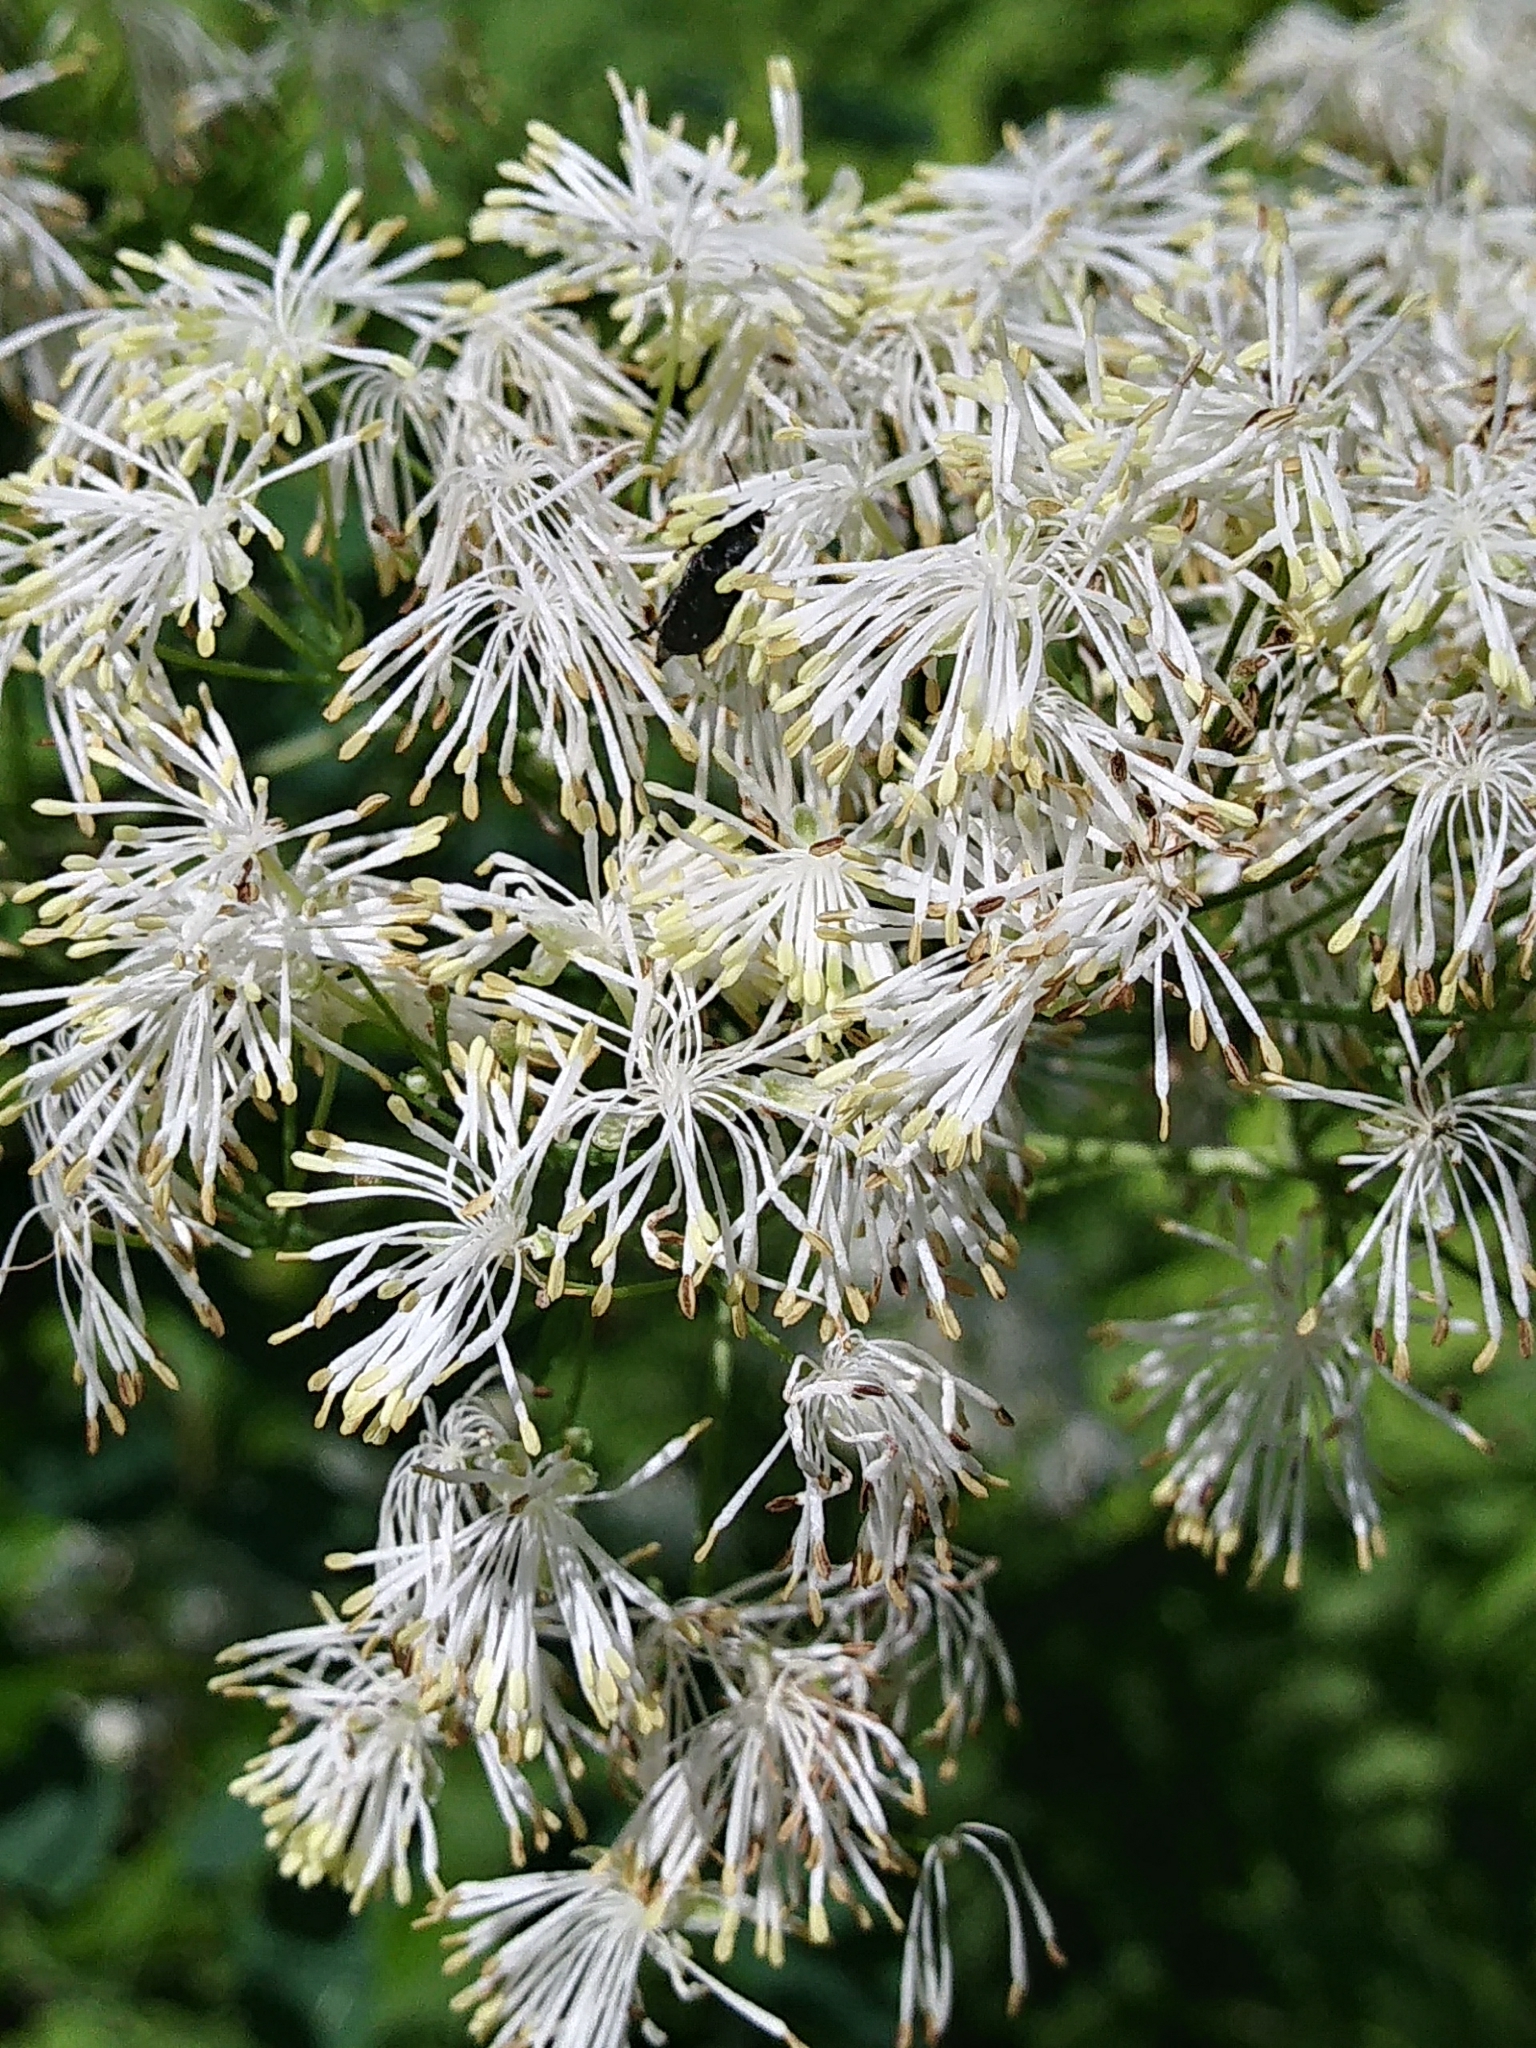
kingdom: Plantae
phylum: Tracheophyta
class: Magnoliopsida
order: Ranunculales
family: Ranunculaceae
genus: Thalictrum
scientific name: Thalictrum pubescens
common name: King-of-the-meadow
